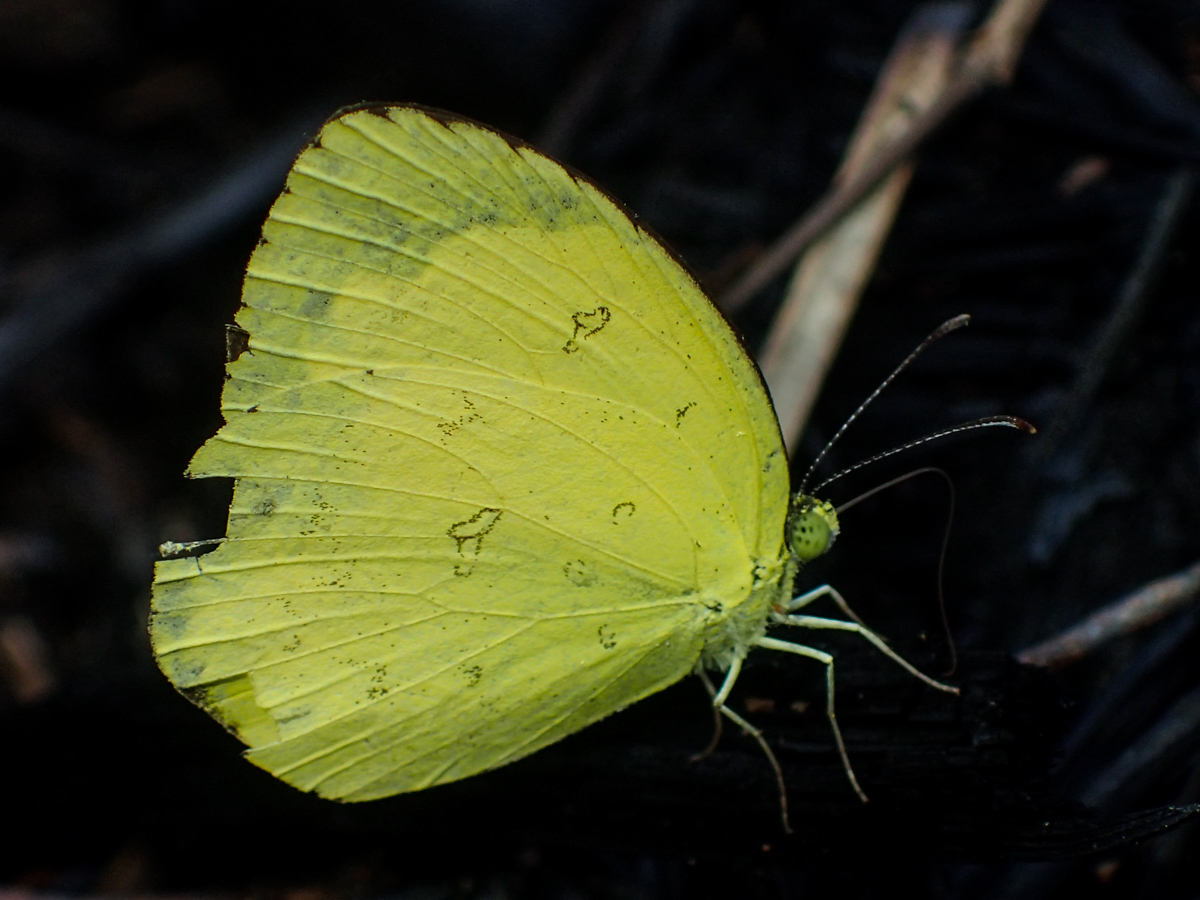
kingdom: Animalia
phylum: Arthropoda
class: Insecta
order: Lepidoptera
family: Pieridae
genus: Eurema
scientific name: Eurema hecabe
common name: Pale grass yellow
